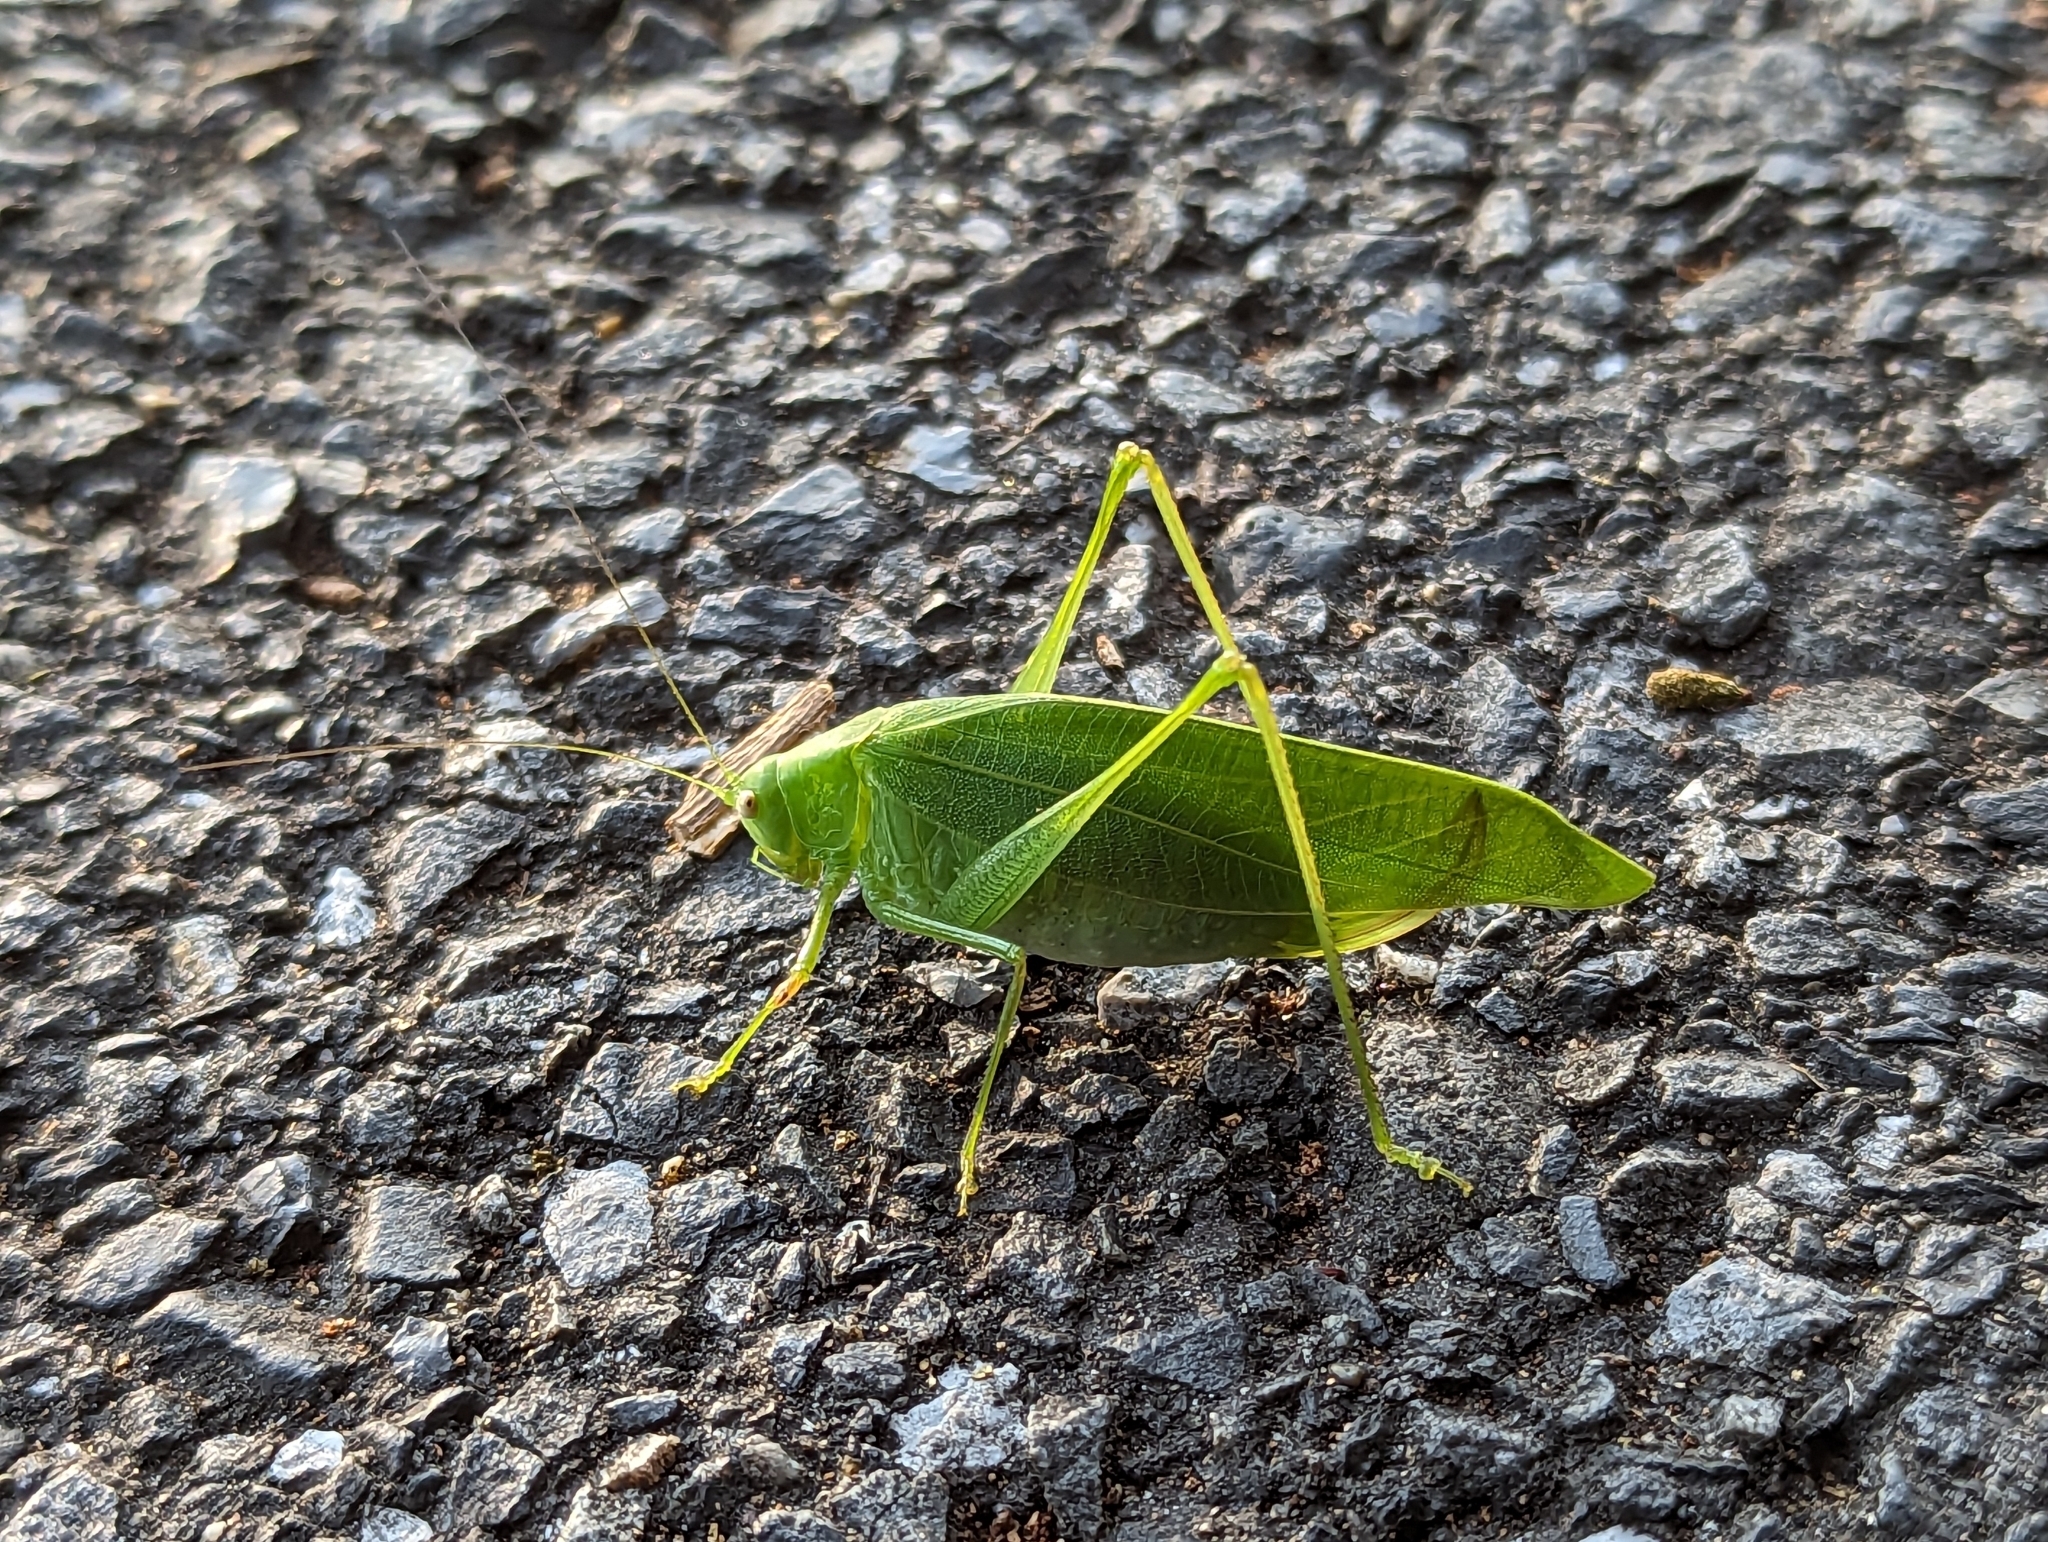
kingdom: Animalia
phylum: Arthropoda
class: Insecta
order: Orthoptera
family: Tettigoniidae
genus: Phaulula
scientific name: Phaulula macilenta
